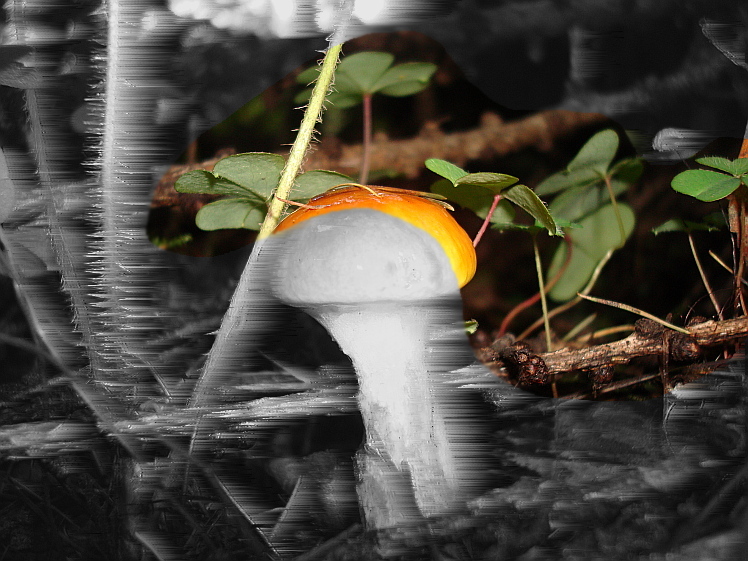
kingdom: Plantae
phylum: Tracheophyta
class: Magnoliopsida
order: Oxalidales
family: Oxalidaceae
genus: Oxalis
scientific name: Oxalis acetosella
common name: Wood-sorrel
